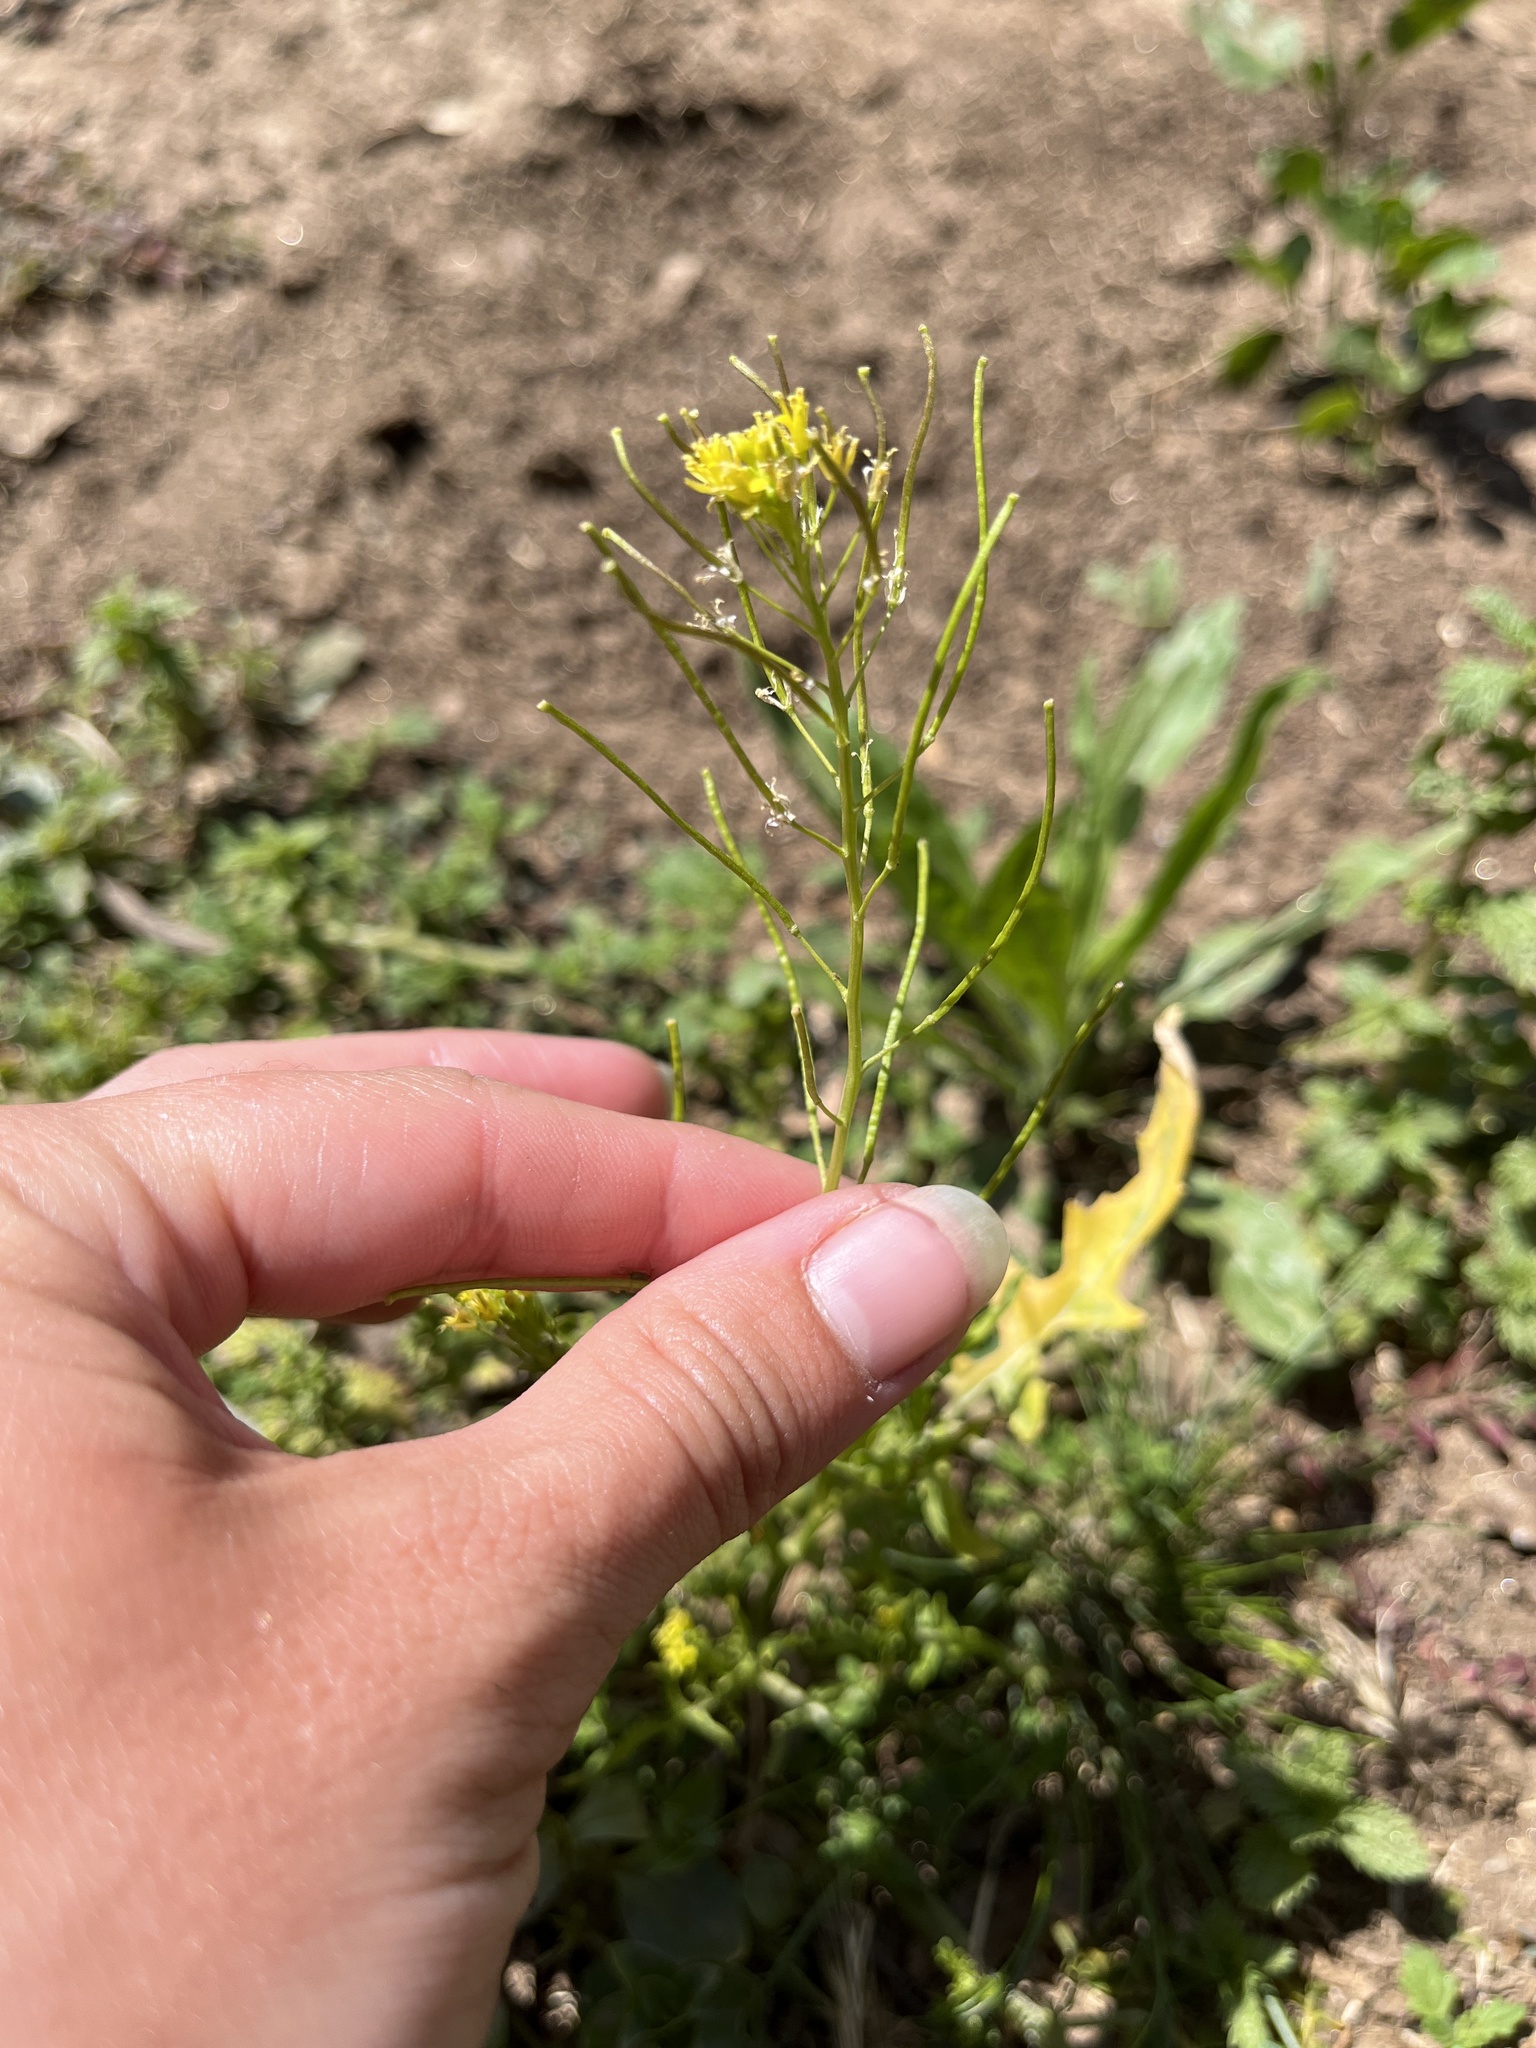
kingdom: Plantae
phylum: Tracheophyta
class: Magnoliopsida
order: Brassicales
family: Brassicaceae
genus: Sisymbrium
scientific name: Sisymbrium irio
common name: London rocket
